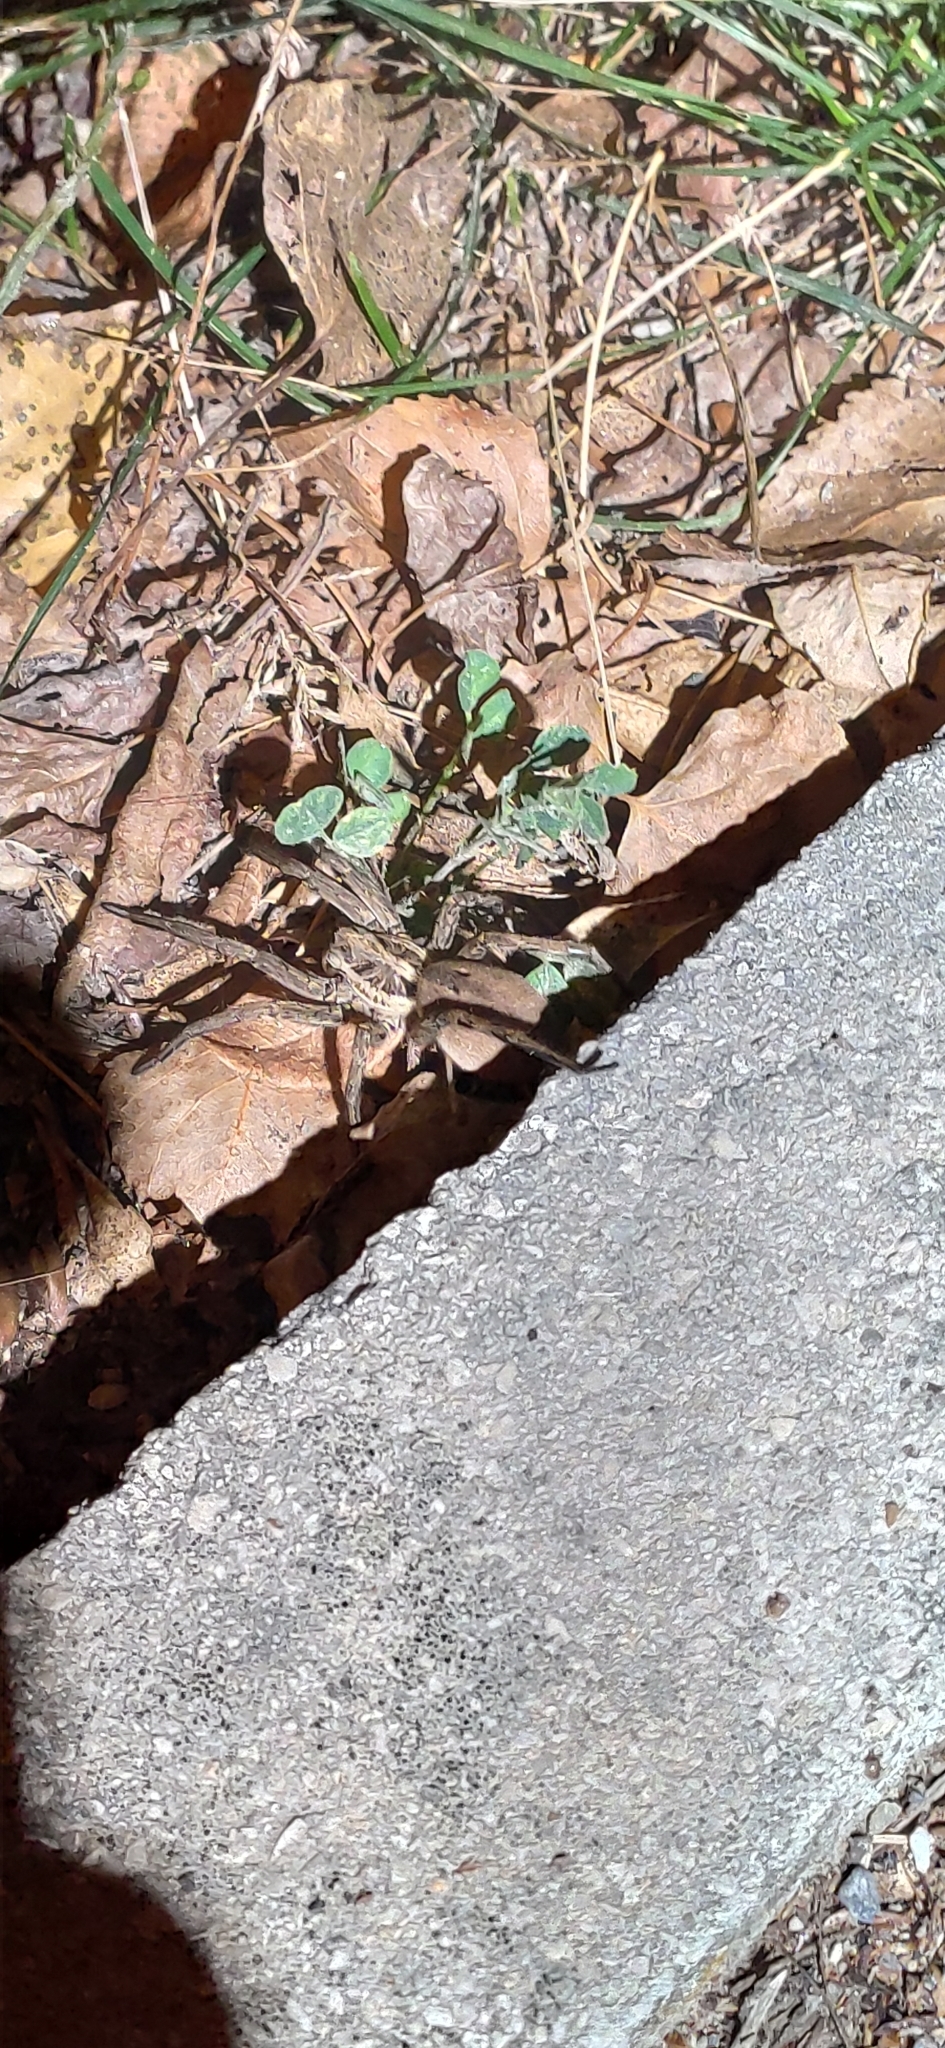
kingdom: Animalia
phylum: Arthropoda
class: Arachnida
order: Araneae
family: Lycosidae
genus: Hogna
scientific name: Hogna radiata
